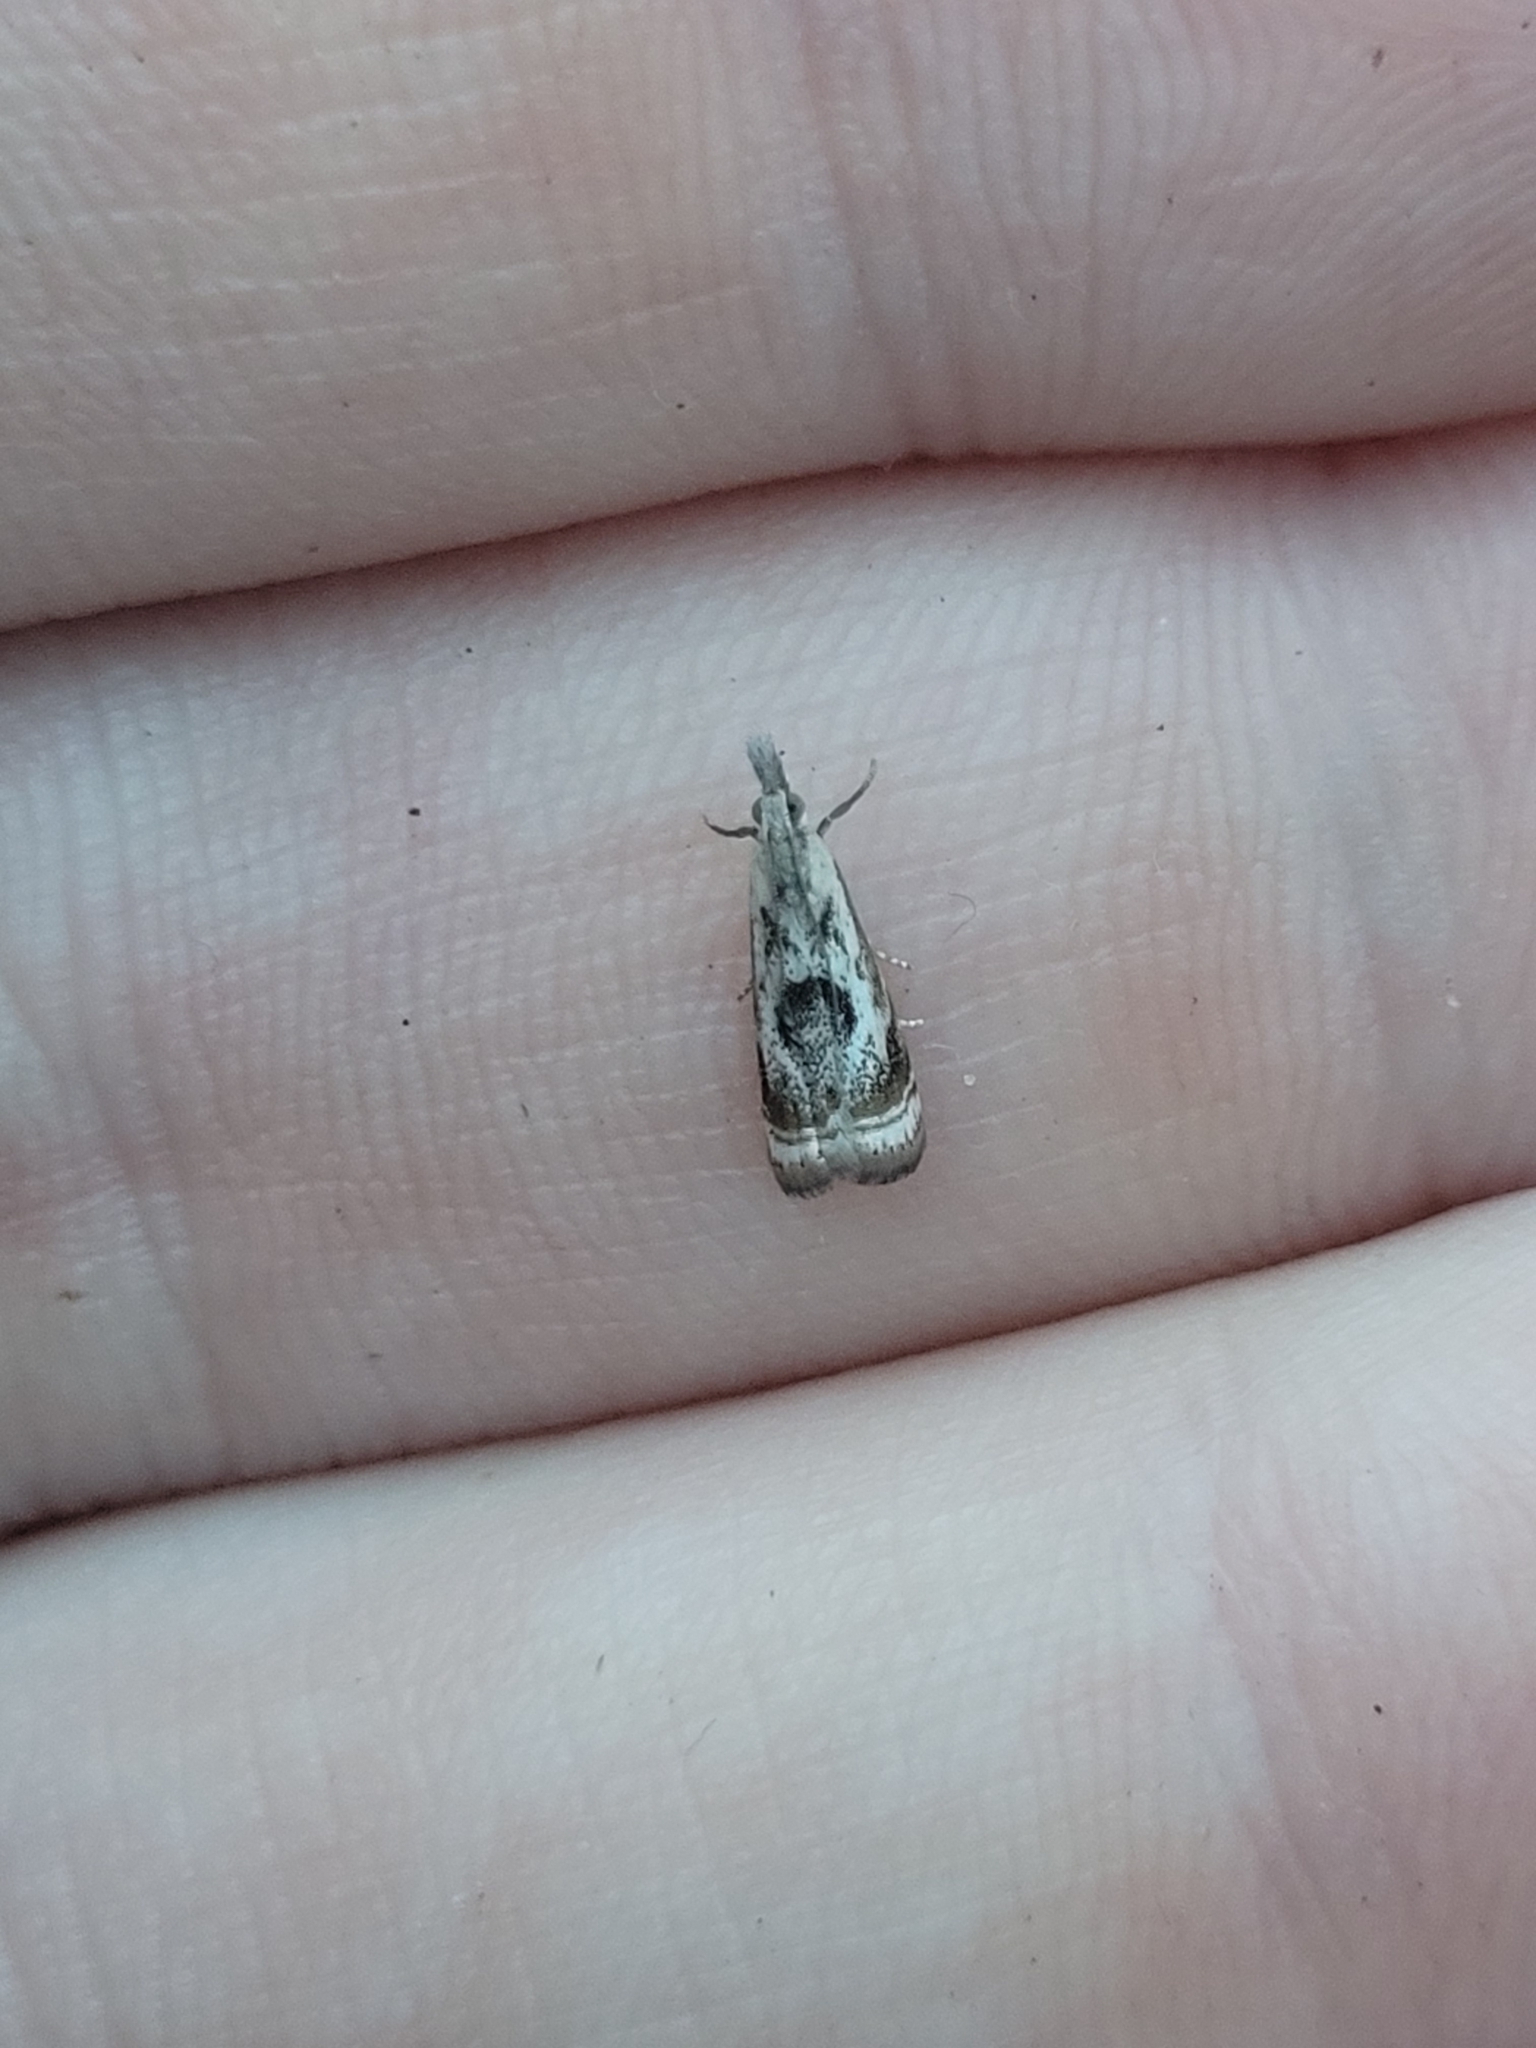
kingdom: Animalia
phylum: Arthropoda
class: Insecta
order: Lepidoptera
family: Crambidae
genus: Microcrambus
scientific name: Microcrambus elegans
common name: Elegant grass-veneer
